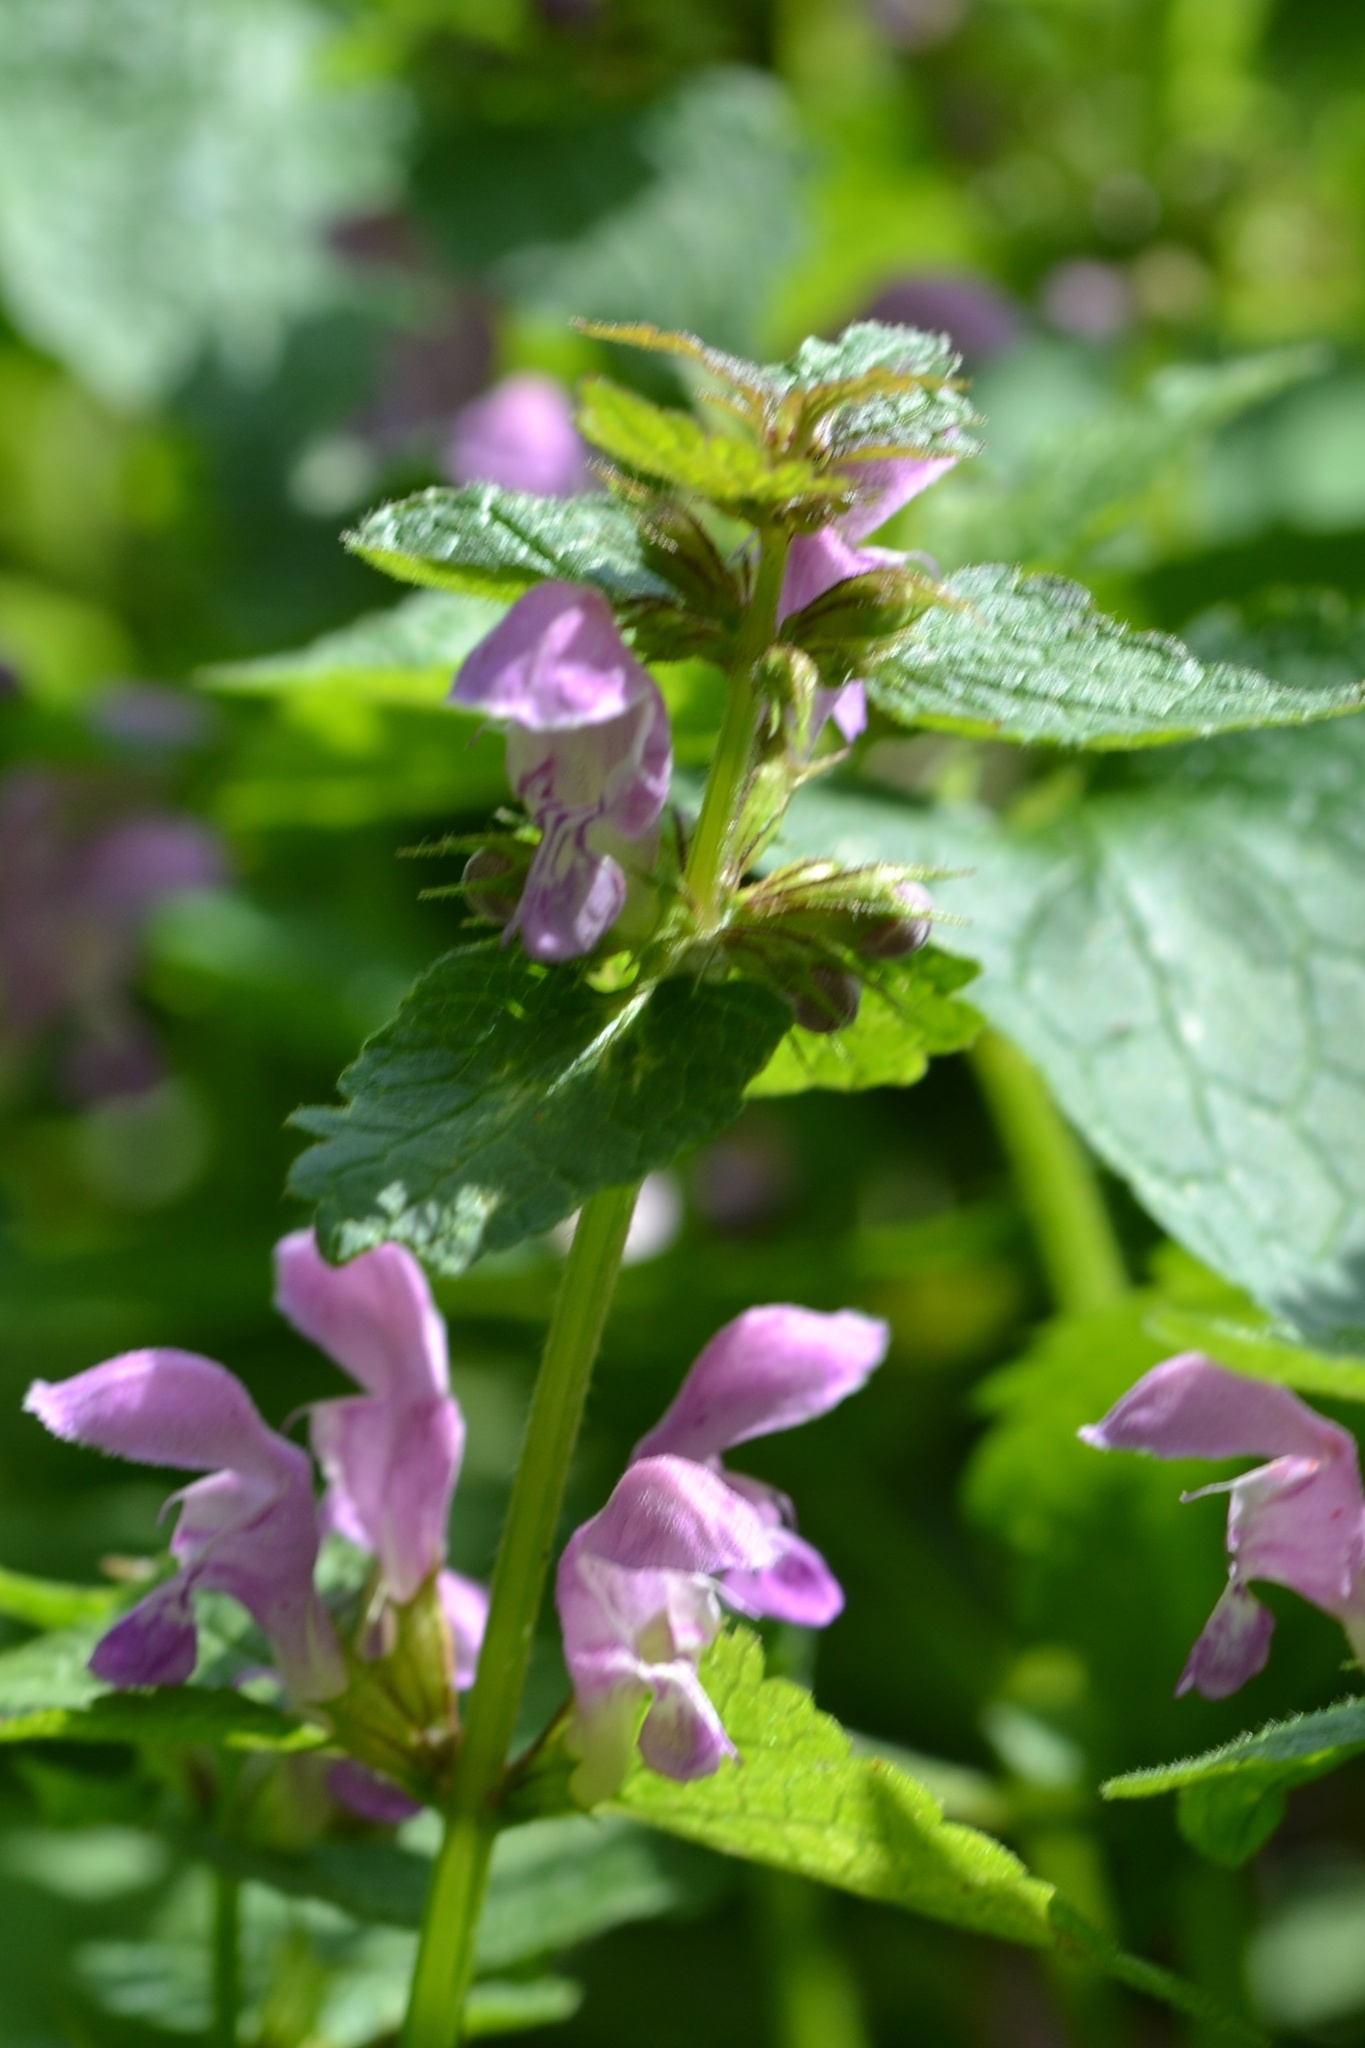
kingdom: Plantae
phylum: Tracheophyta
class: Magnoliopsida
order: Lamiales
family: Lamiaceae
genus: Lamium
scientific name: Lamium maculatum
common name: Spotted dead-nettle
